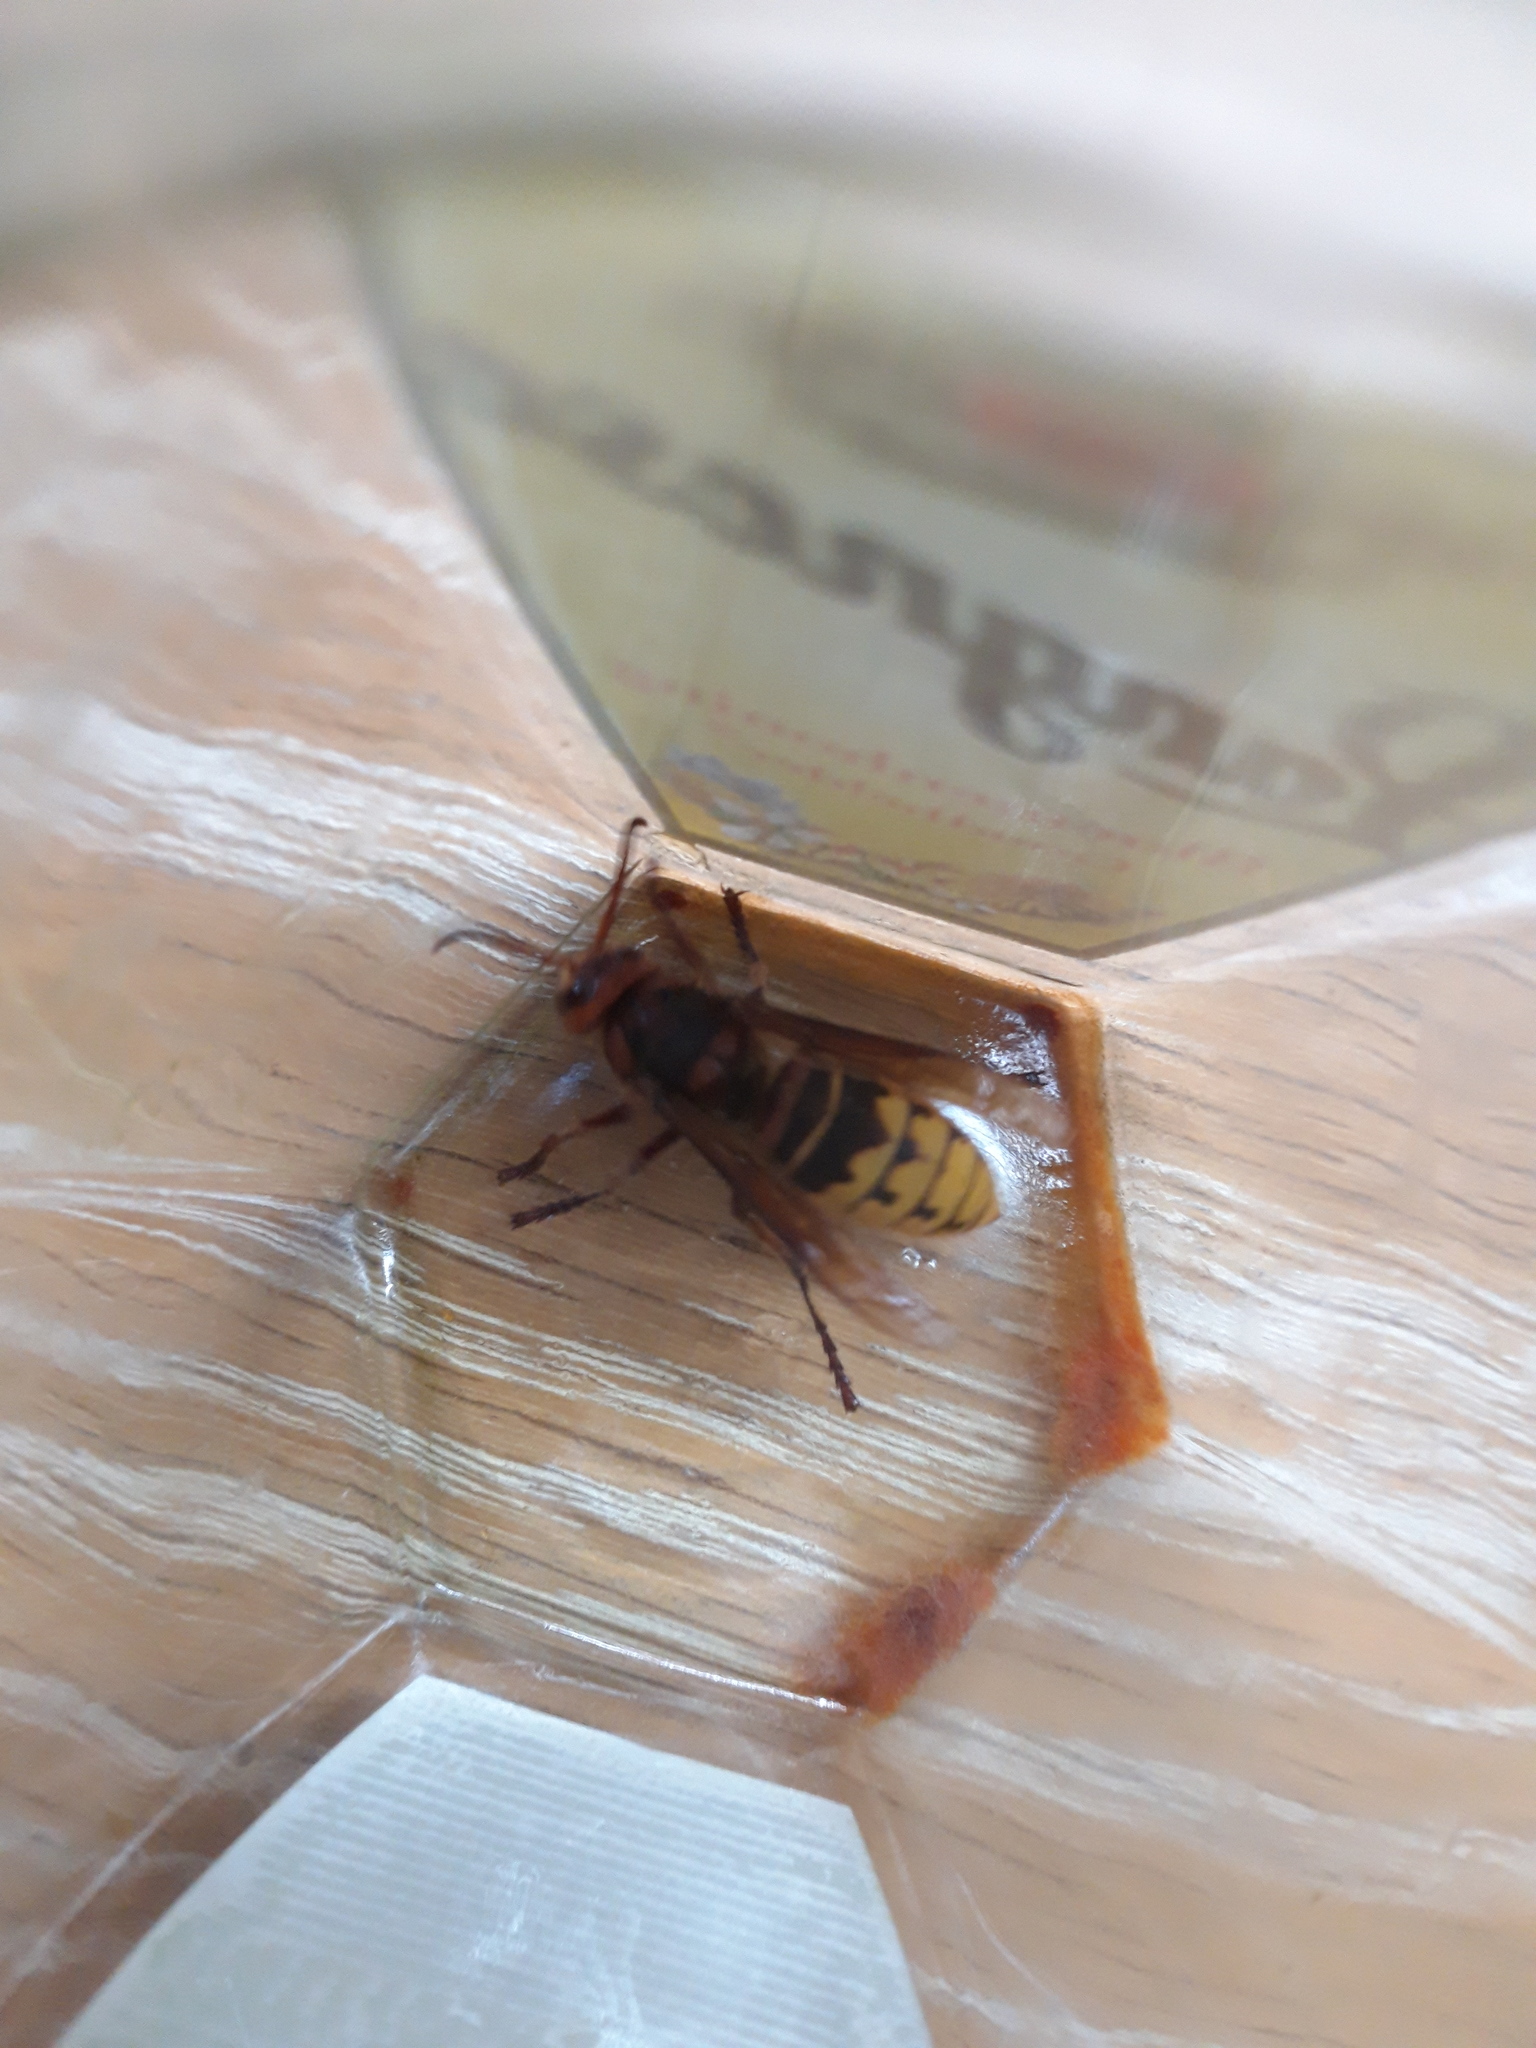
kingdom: Animalia
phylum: Arthropoda
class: Insecta
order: Hymenoptera
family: Vespidae
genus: Vespa
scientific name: Vespa crabro
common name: Hornet
